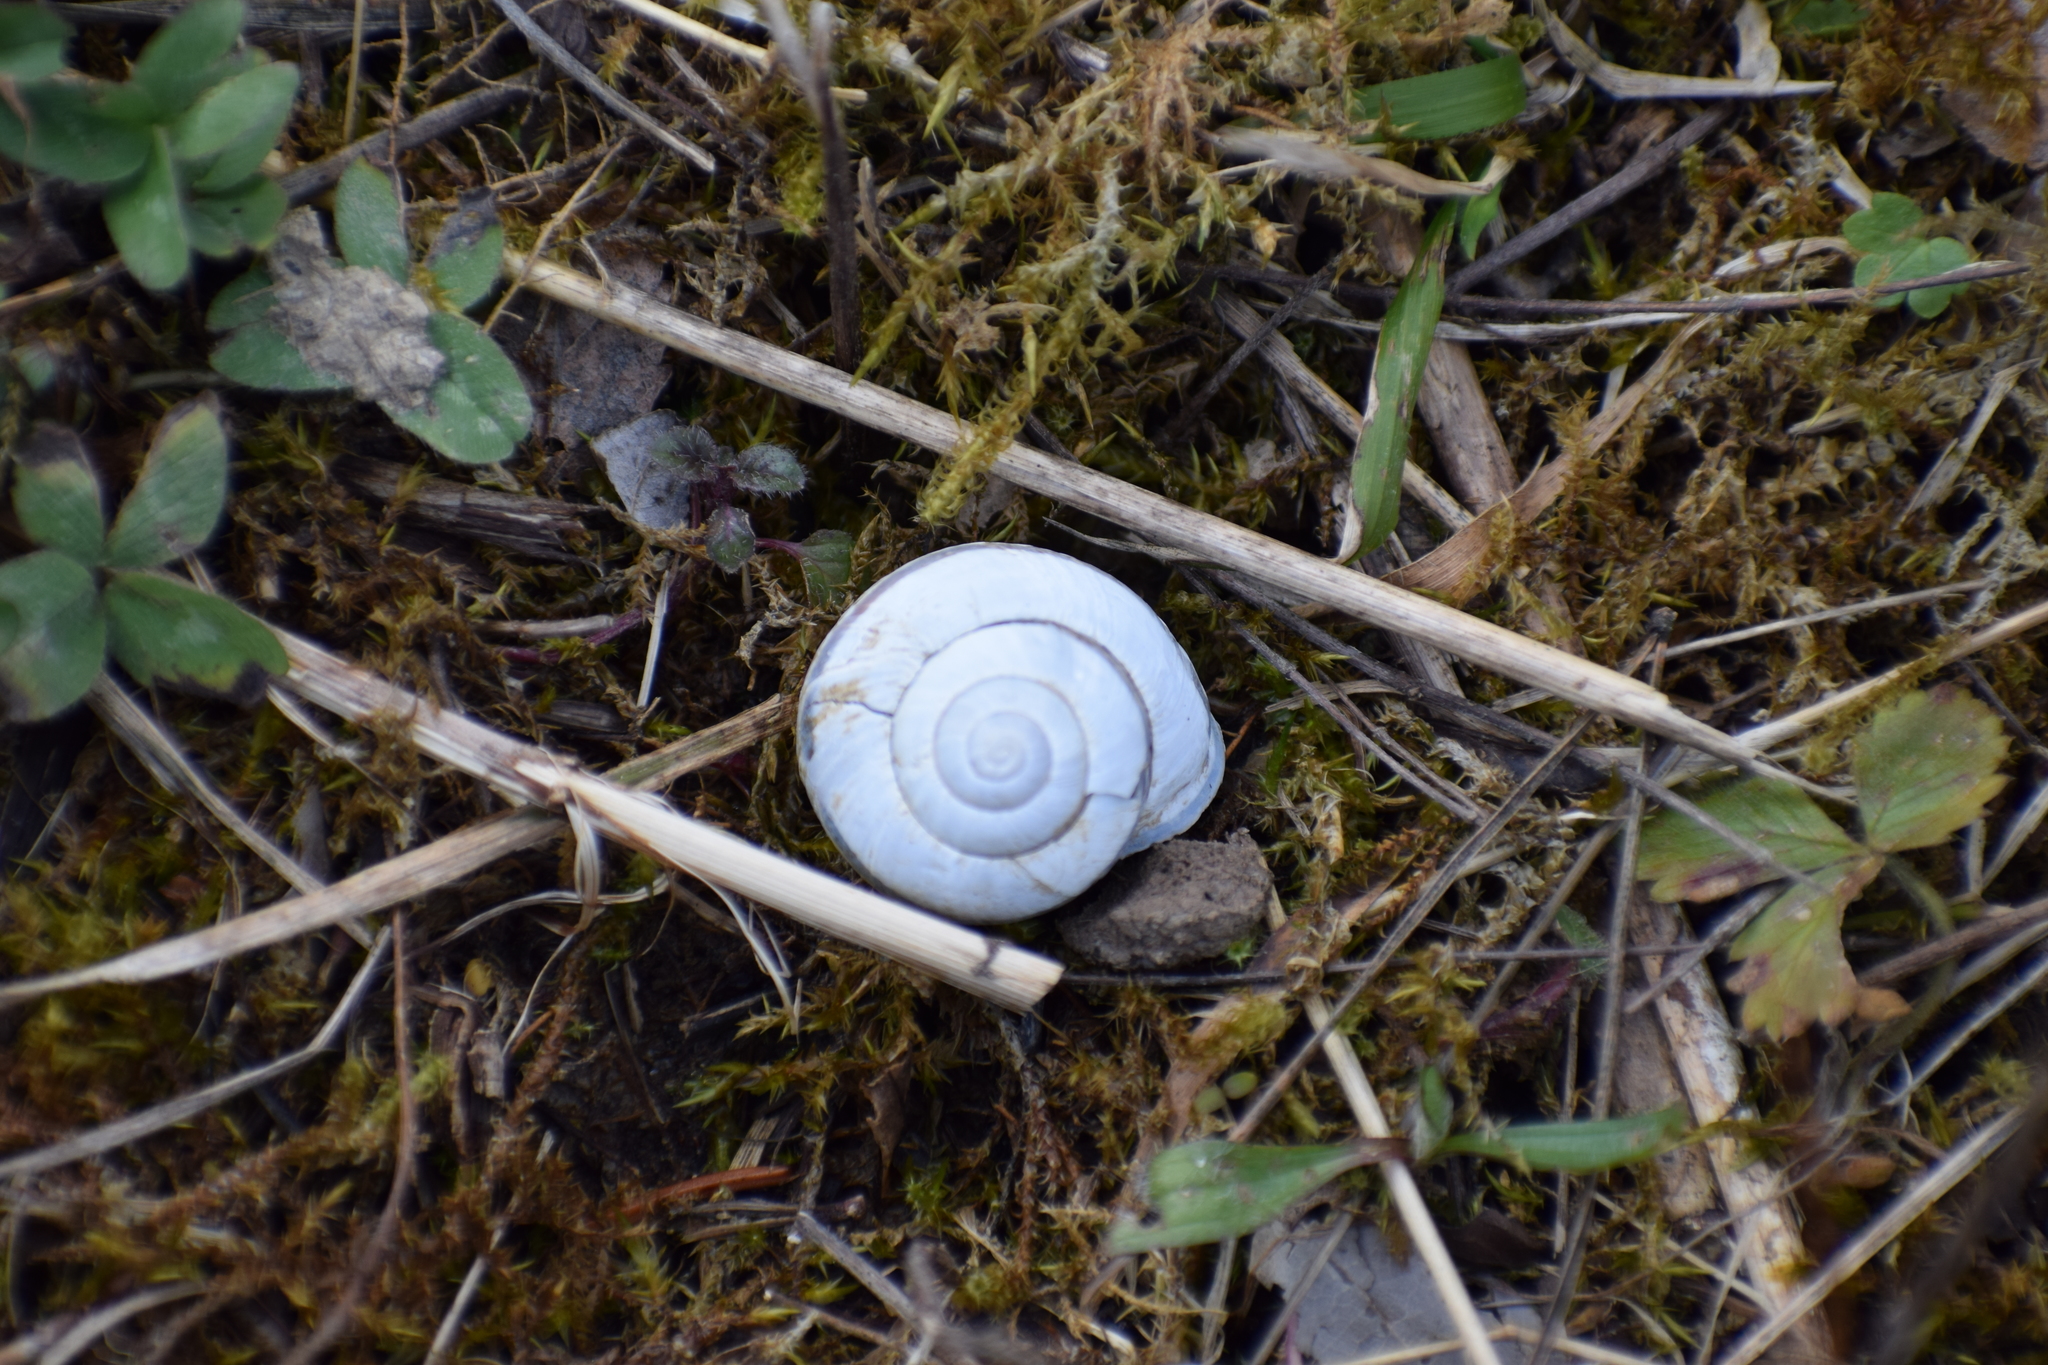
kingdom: Animalia
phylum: Mollusca
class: Gastropoda
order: Stylommatophora
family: Helicidae
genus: Cepaea
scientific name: Cepaea nemoralis
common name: Grovesnail
